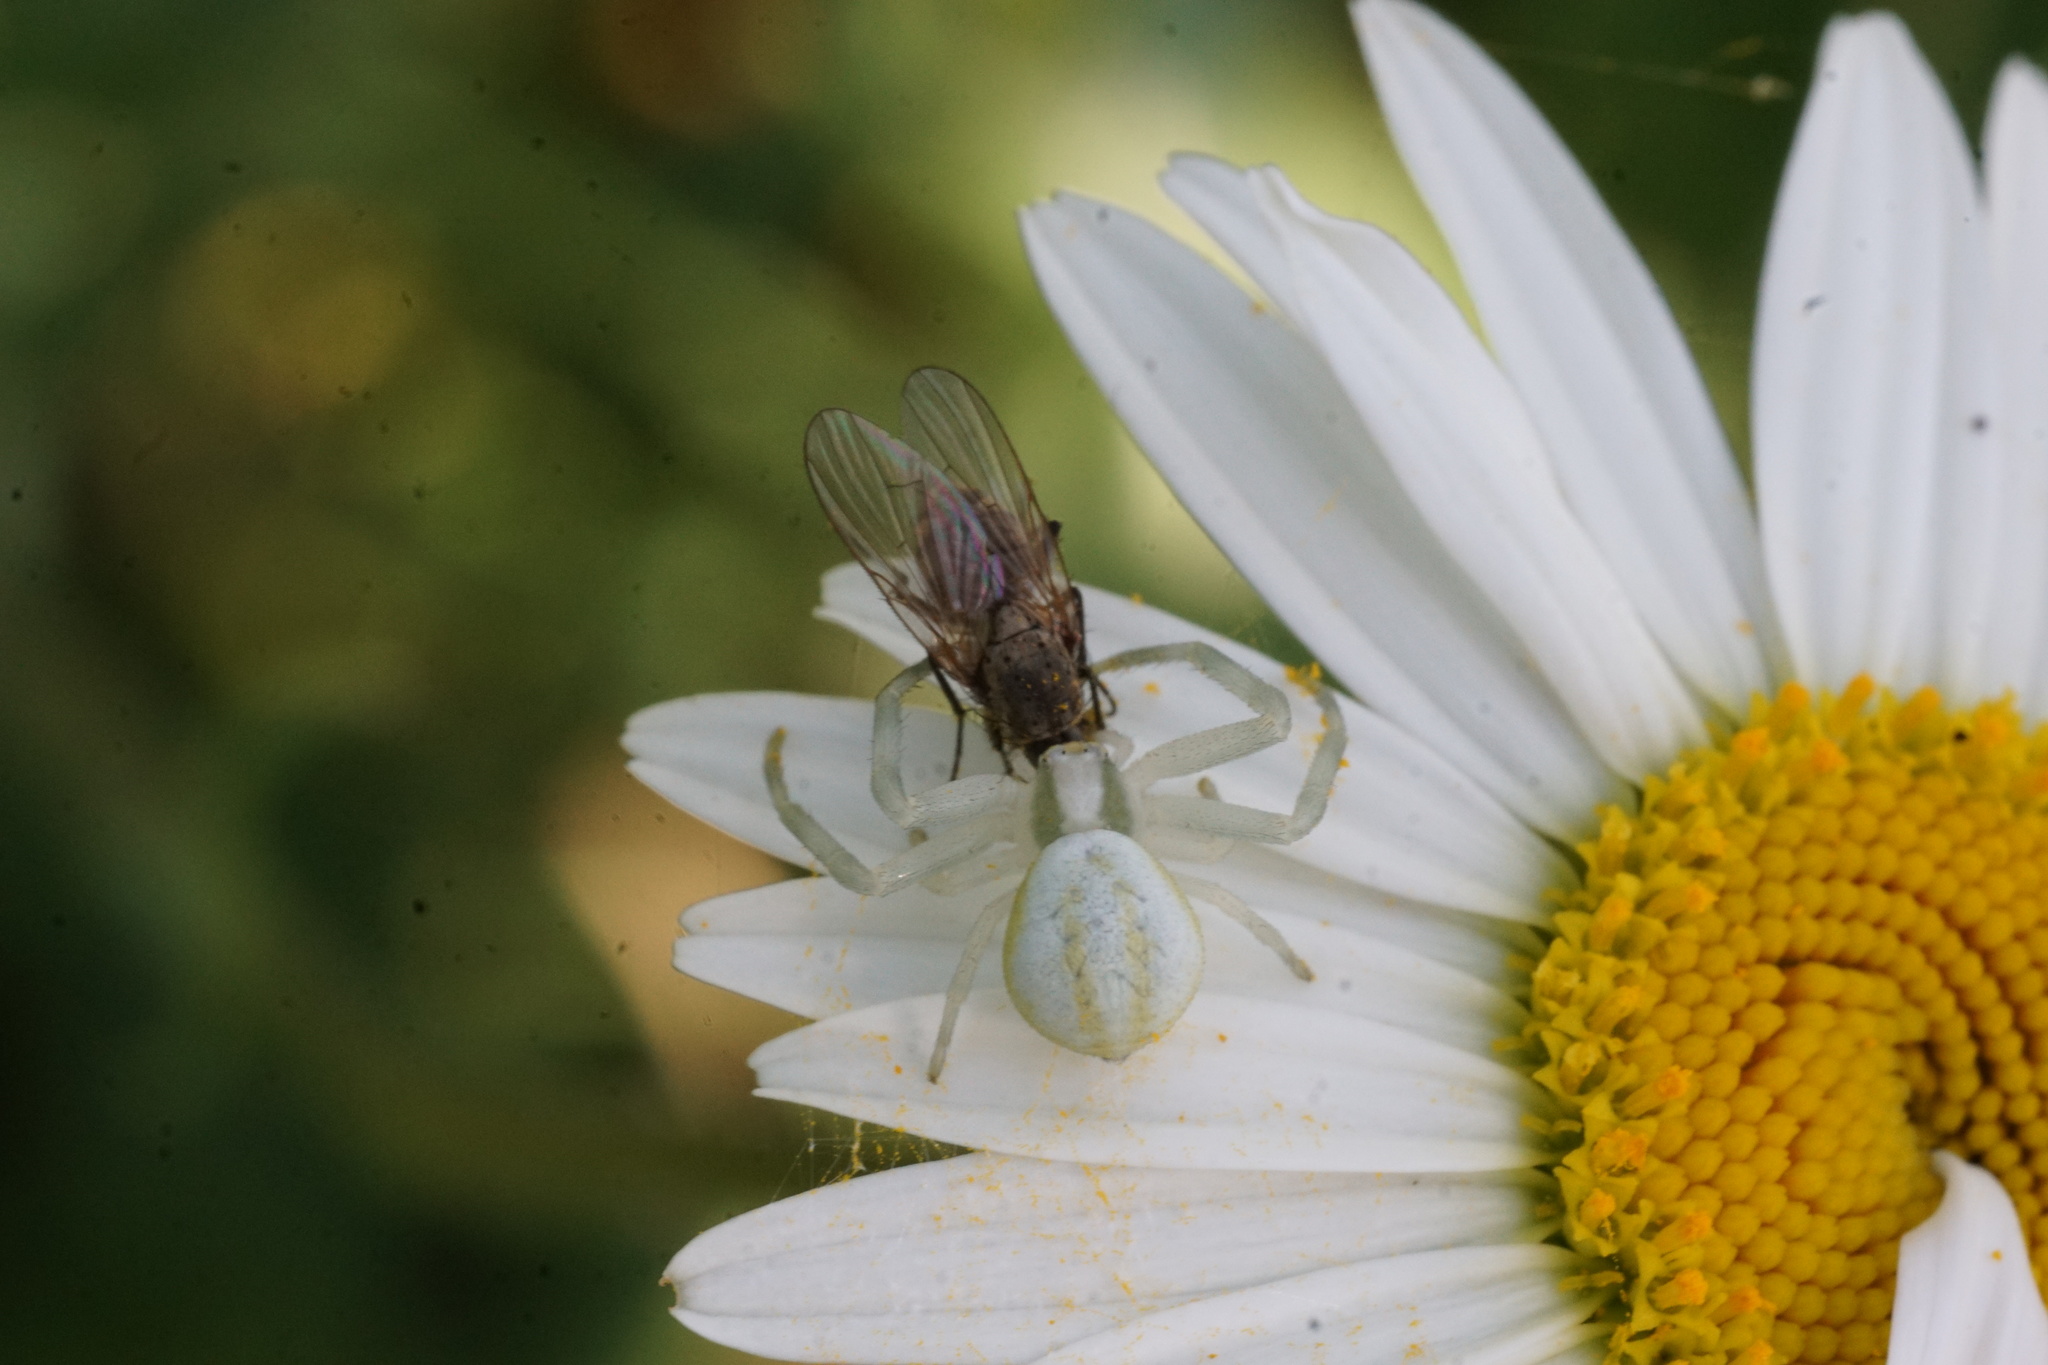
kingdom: Animalia
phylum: Arthropoda
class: Arachnida
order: Araneae
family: Thomisidae
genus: Misumena
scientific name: Misumena vatia
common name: Goldenrod crab spider
